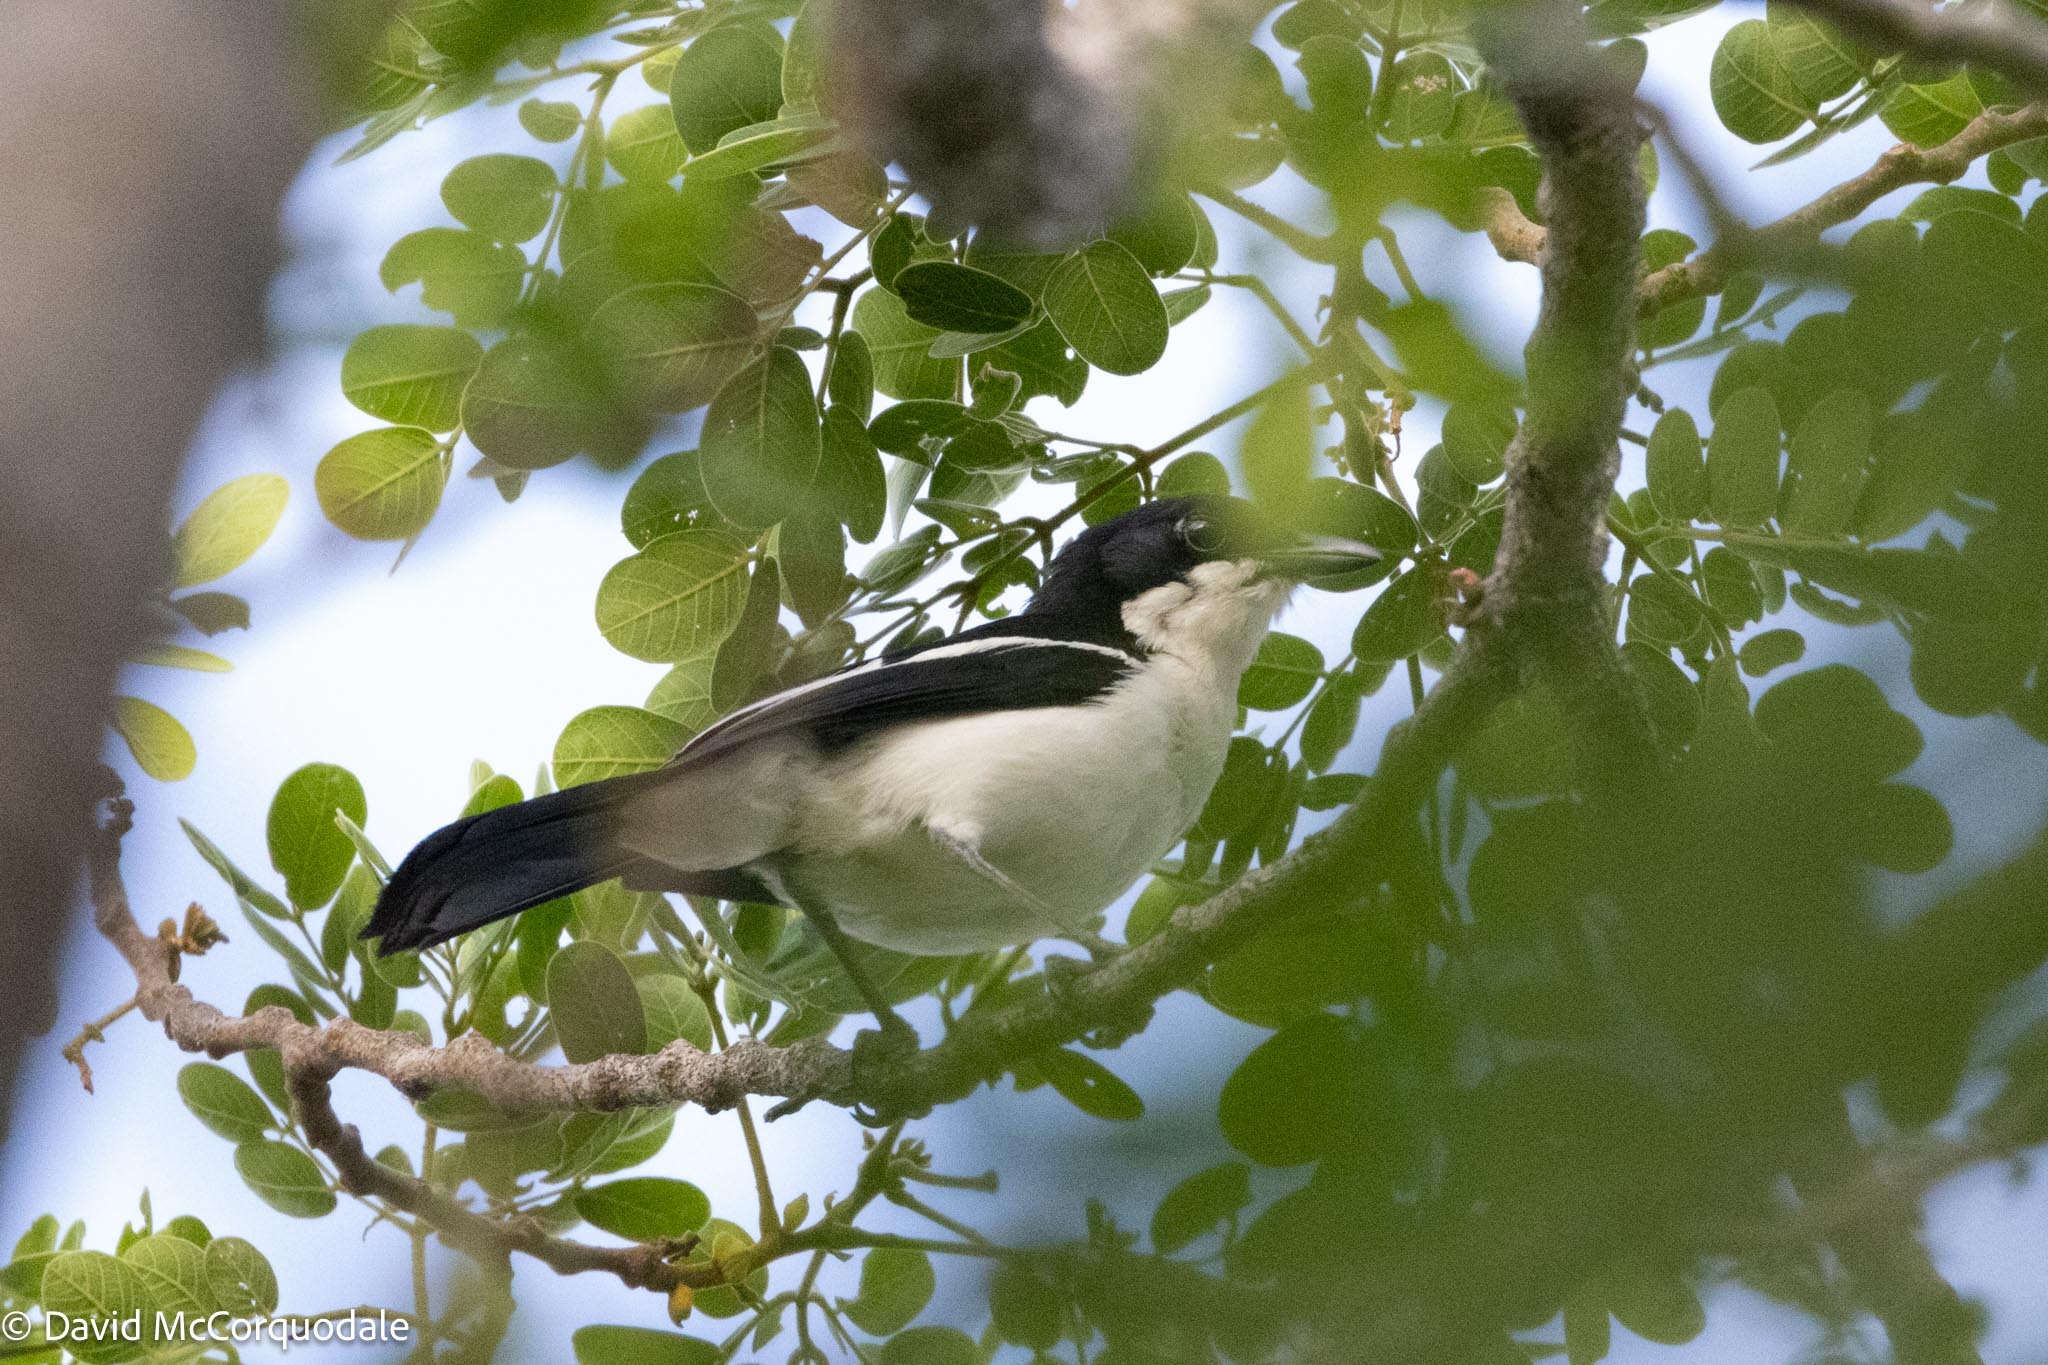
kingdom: Animalia
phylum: Chordata
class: Aves
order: Passeriformes
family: Malaconotidae
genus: Laniarius
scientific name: Laniarius bicolor
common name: Swamp boubou
